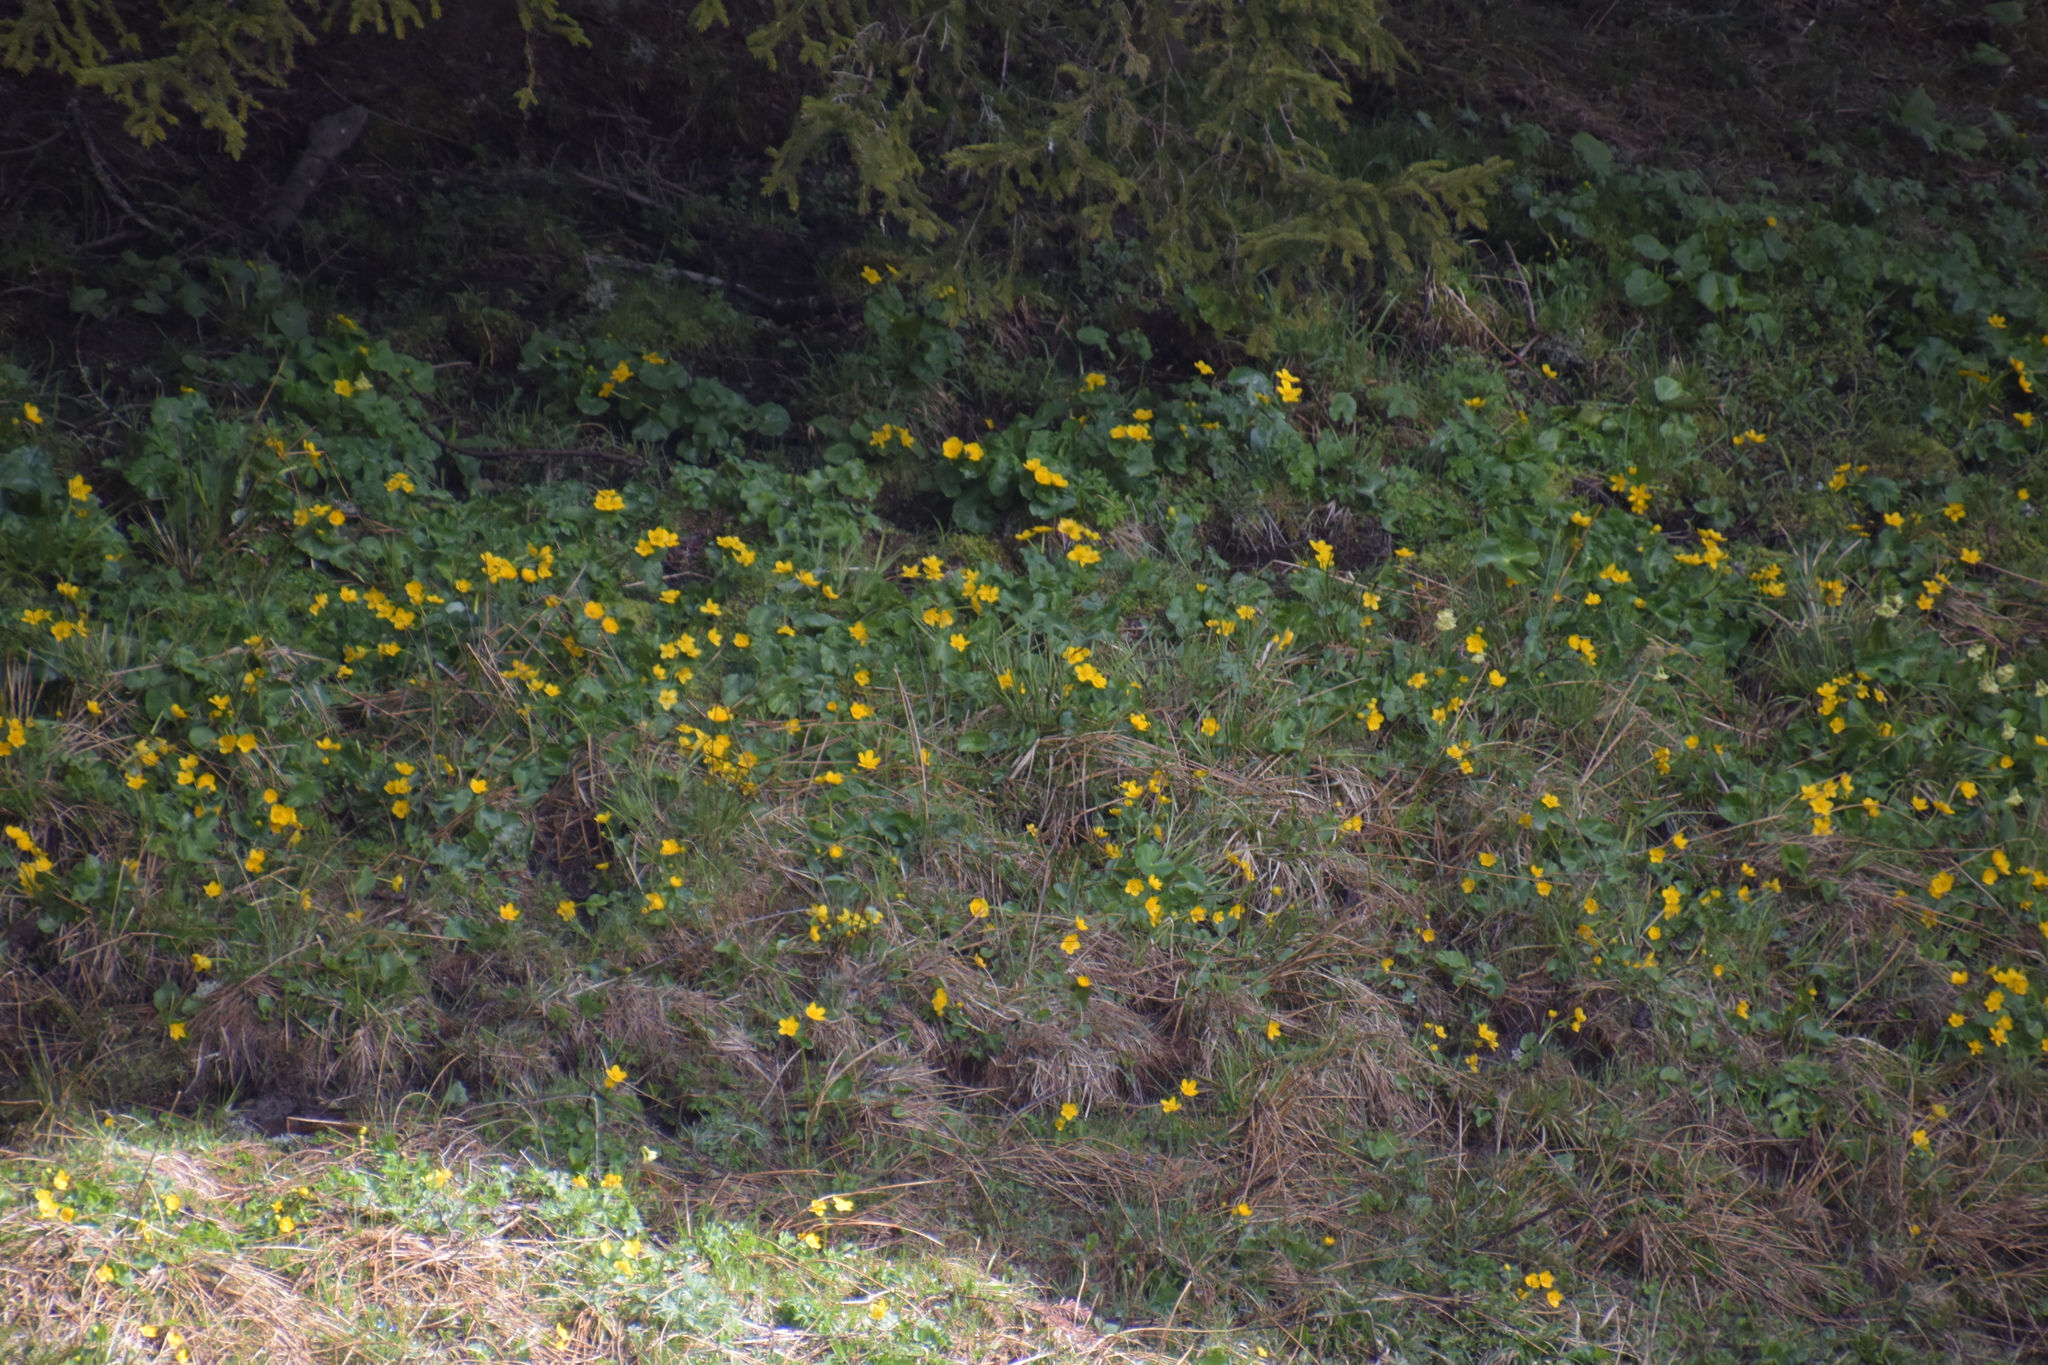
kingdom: Plantae
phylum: Tracheophyta
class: Magnoliopsida
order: Ranunculales
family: Ranunculaceae
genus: Caltha
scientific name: Caltha palustris
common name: Marsh marigold
